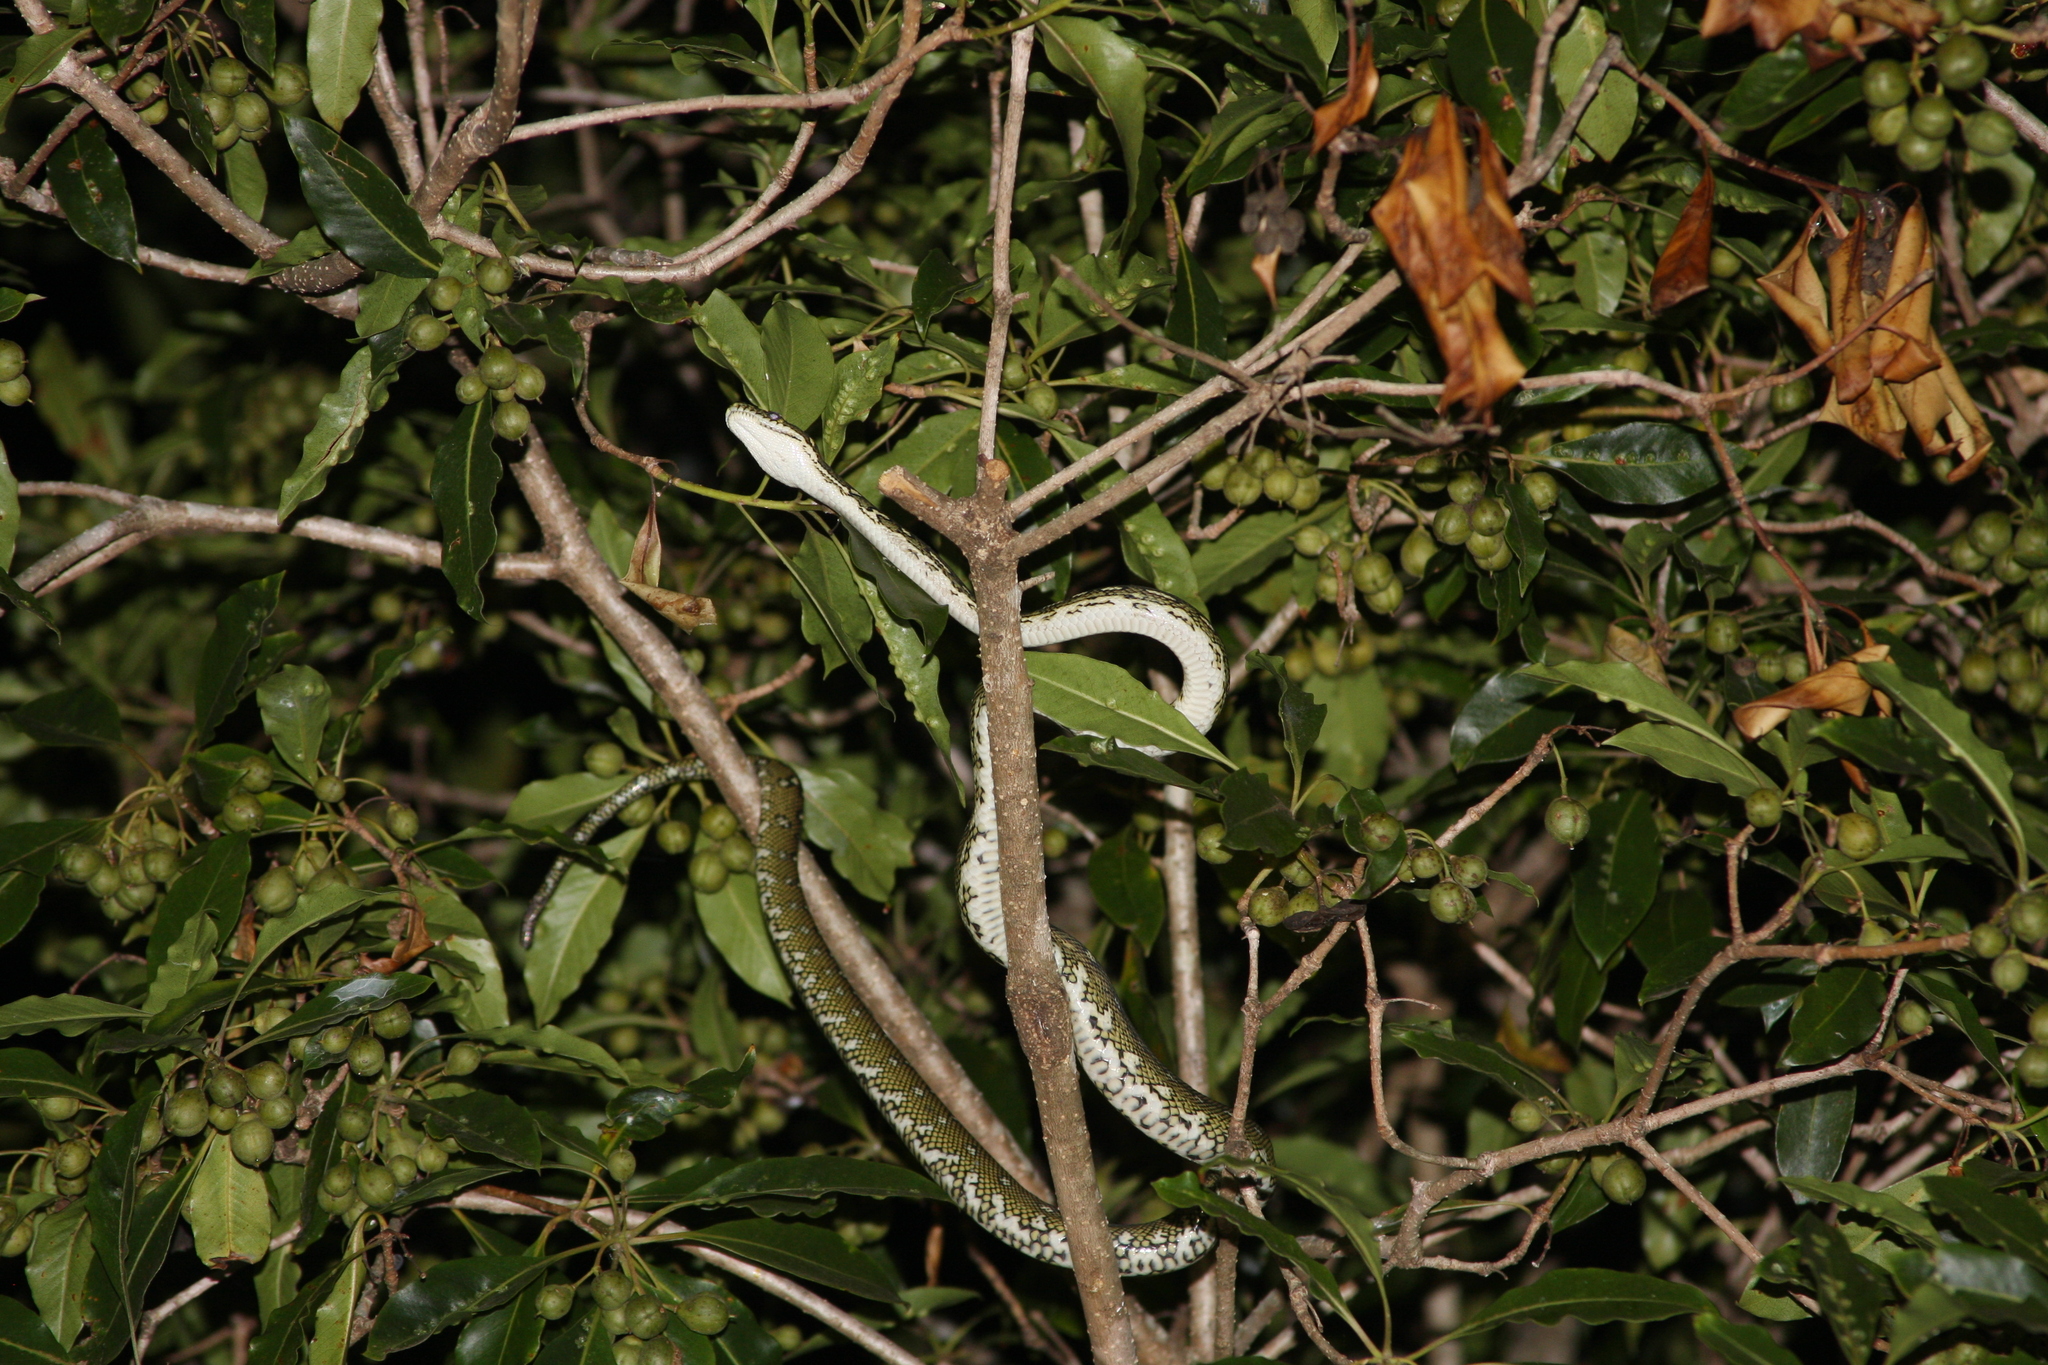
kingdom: Animalia
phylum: Chordata
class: Squamata
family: Pythonidae
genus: Morelia
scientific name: Morelia spilota
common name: Carpet python
